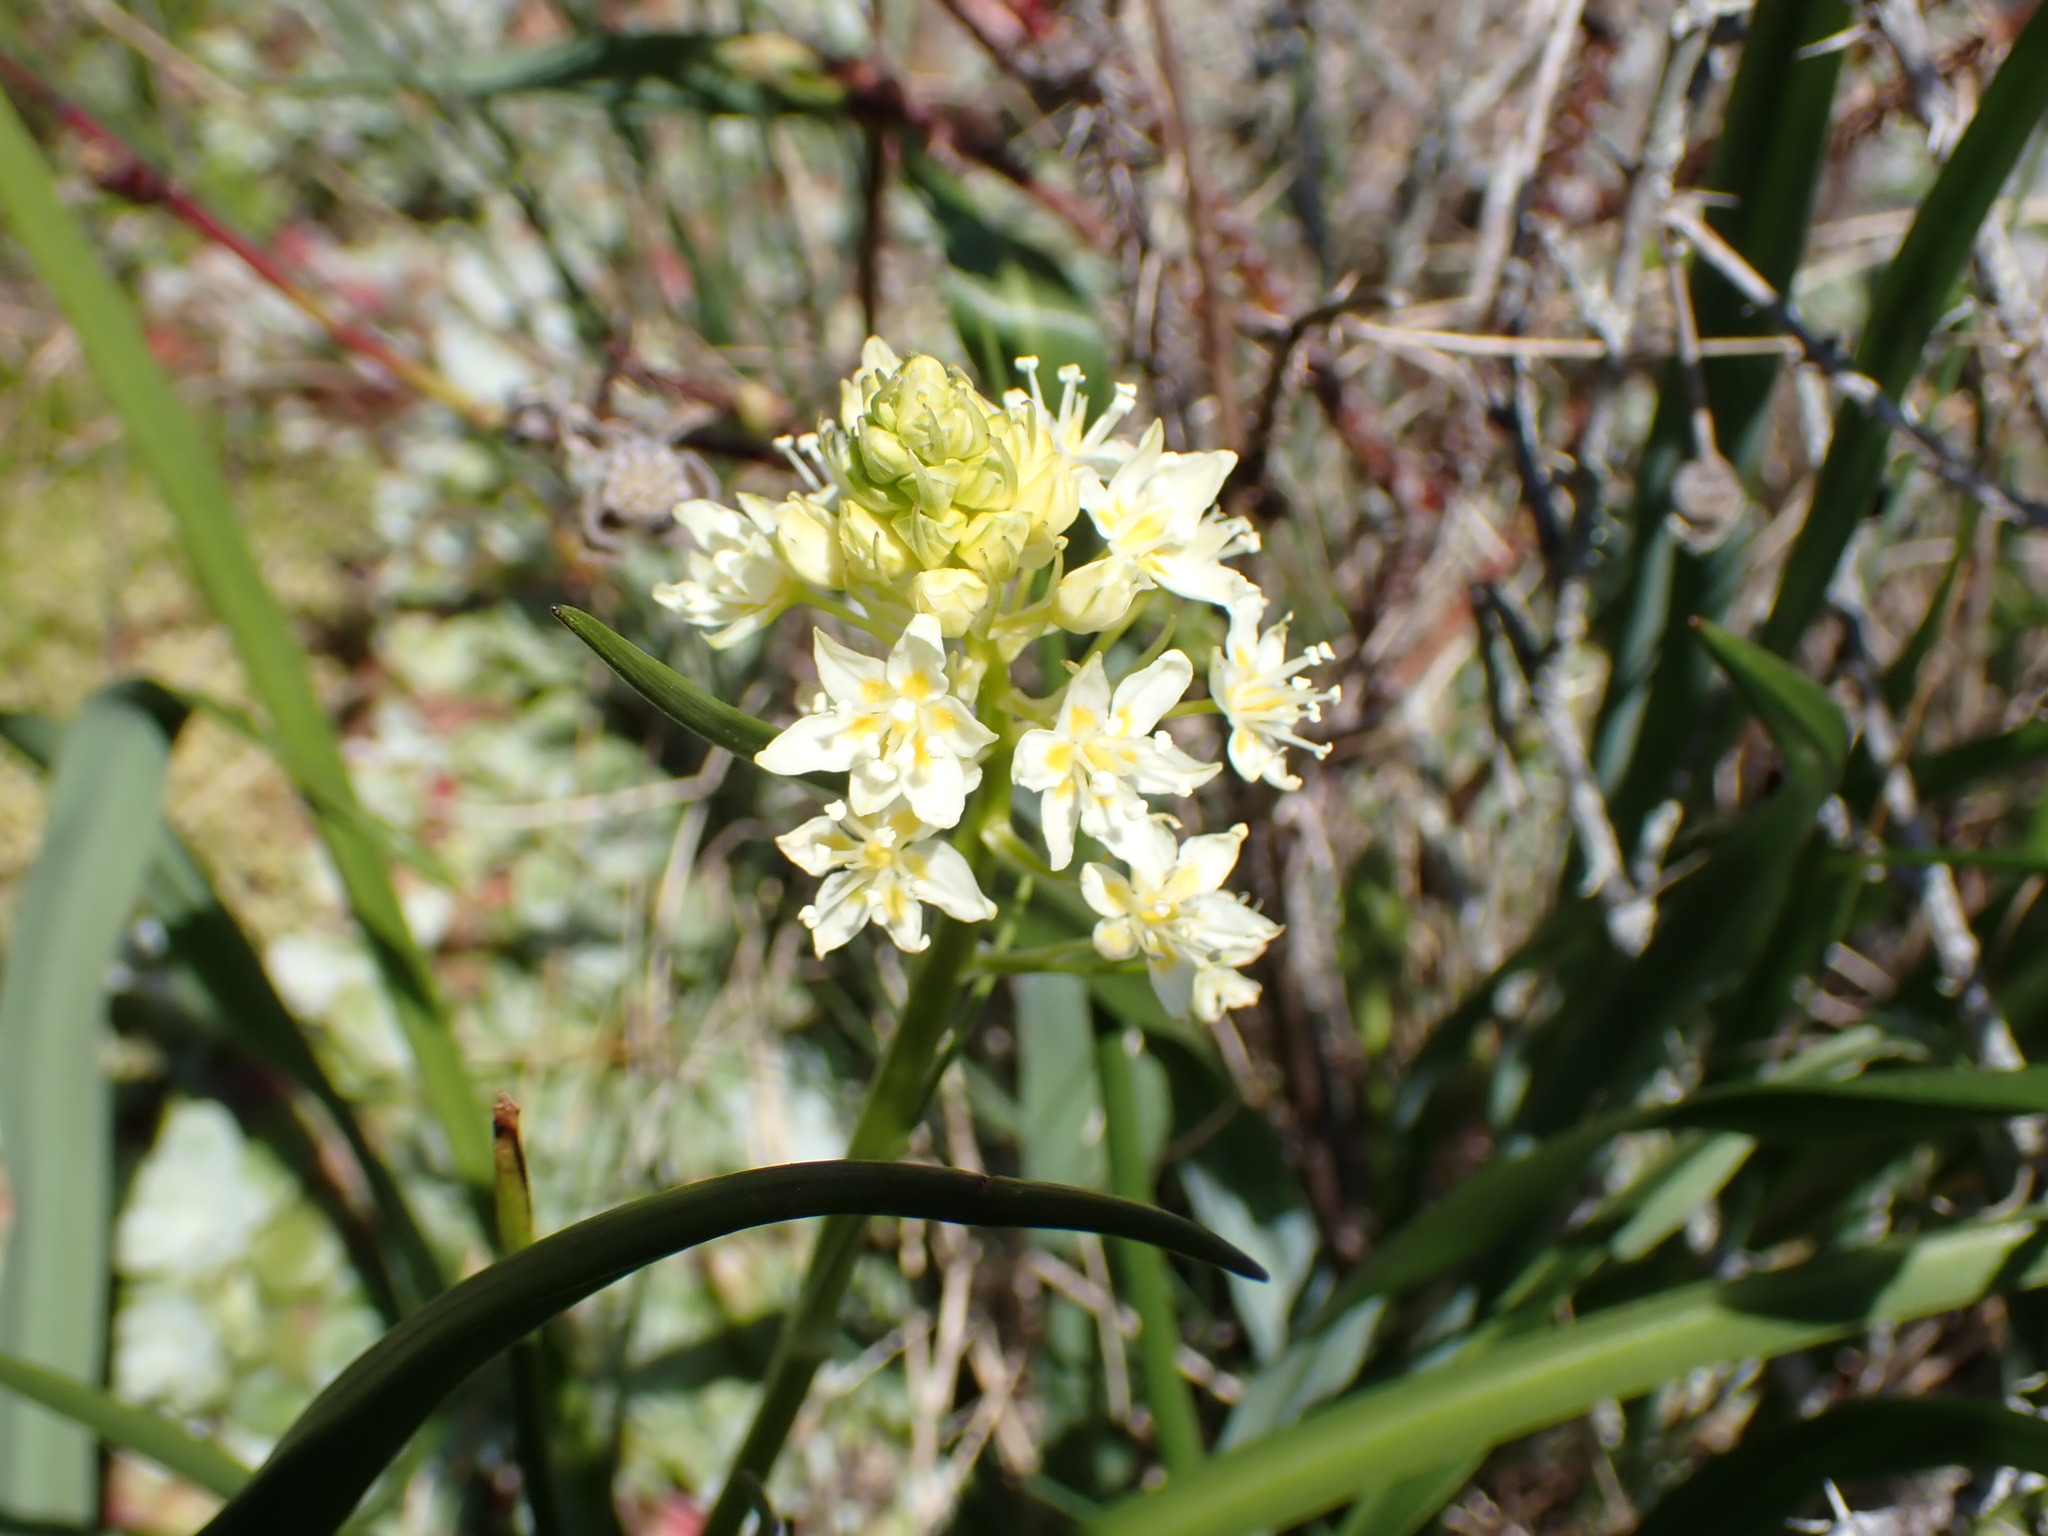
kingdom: Plantae
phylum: Tracheophyta
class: Liliopsida
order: Liliales
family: Melanthiaceae
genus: Toxicoscordion
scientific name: Toxicoscordion venenosum
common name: Meadow death camas
